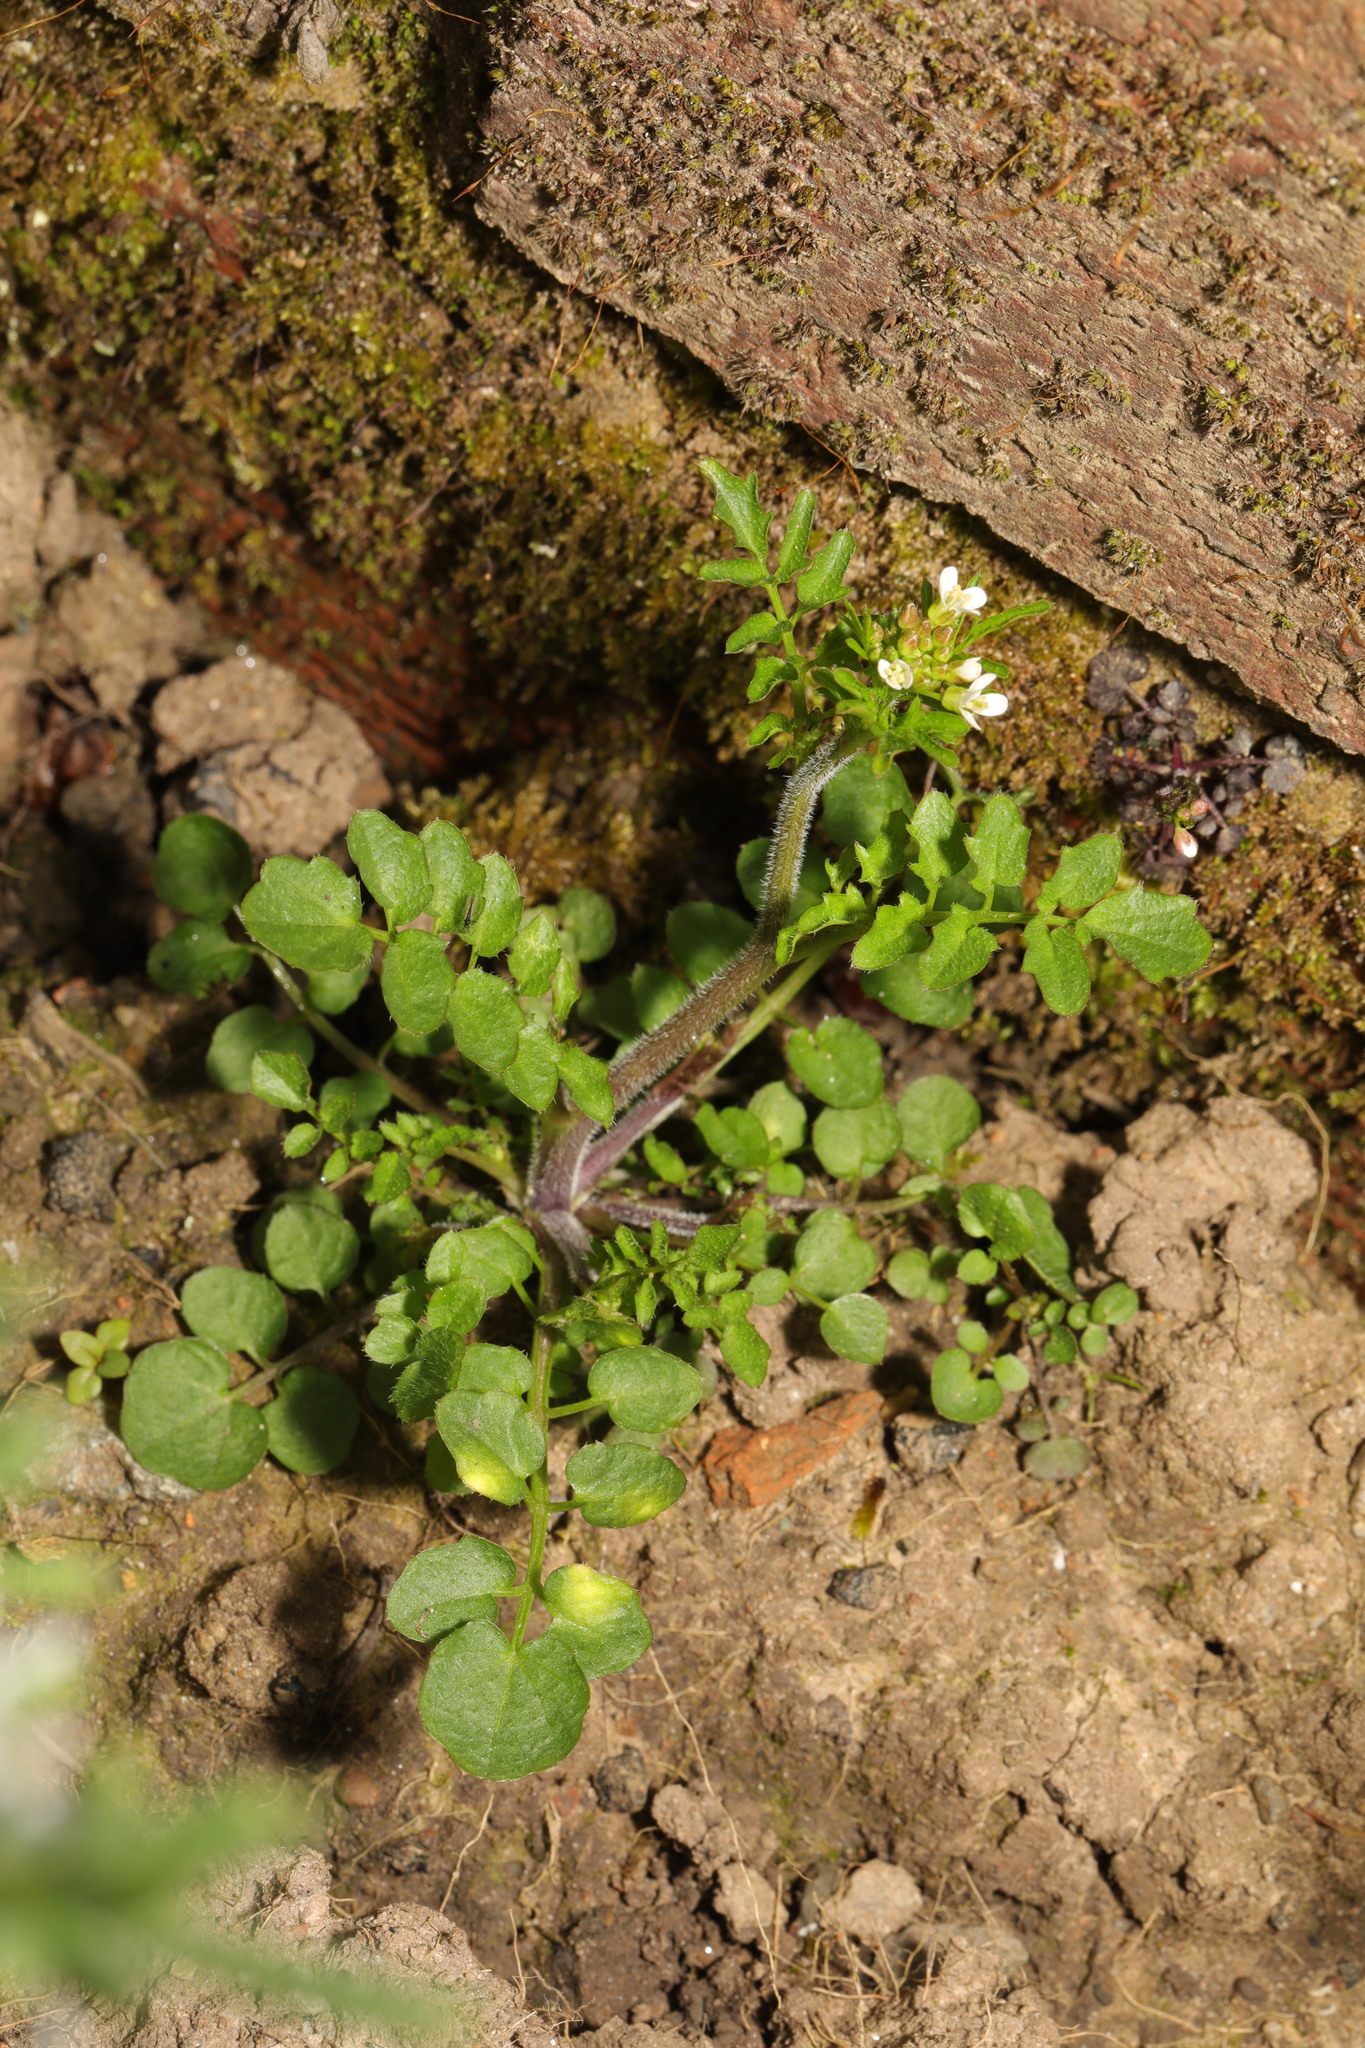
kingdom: Plantae
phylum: Tracheophyta
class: Magnoliopsida
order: Brassicales
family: Brassicaceae
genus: Cardamine
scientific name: Cardamine flexuosa
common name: Woodland bittercress
